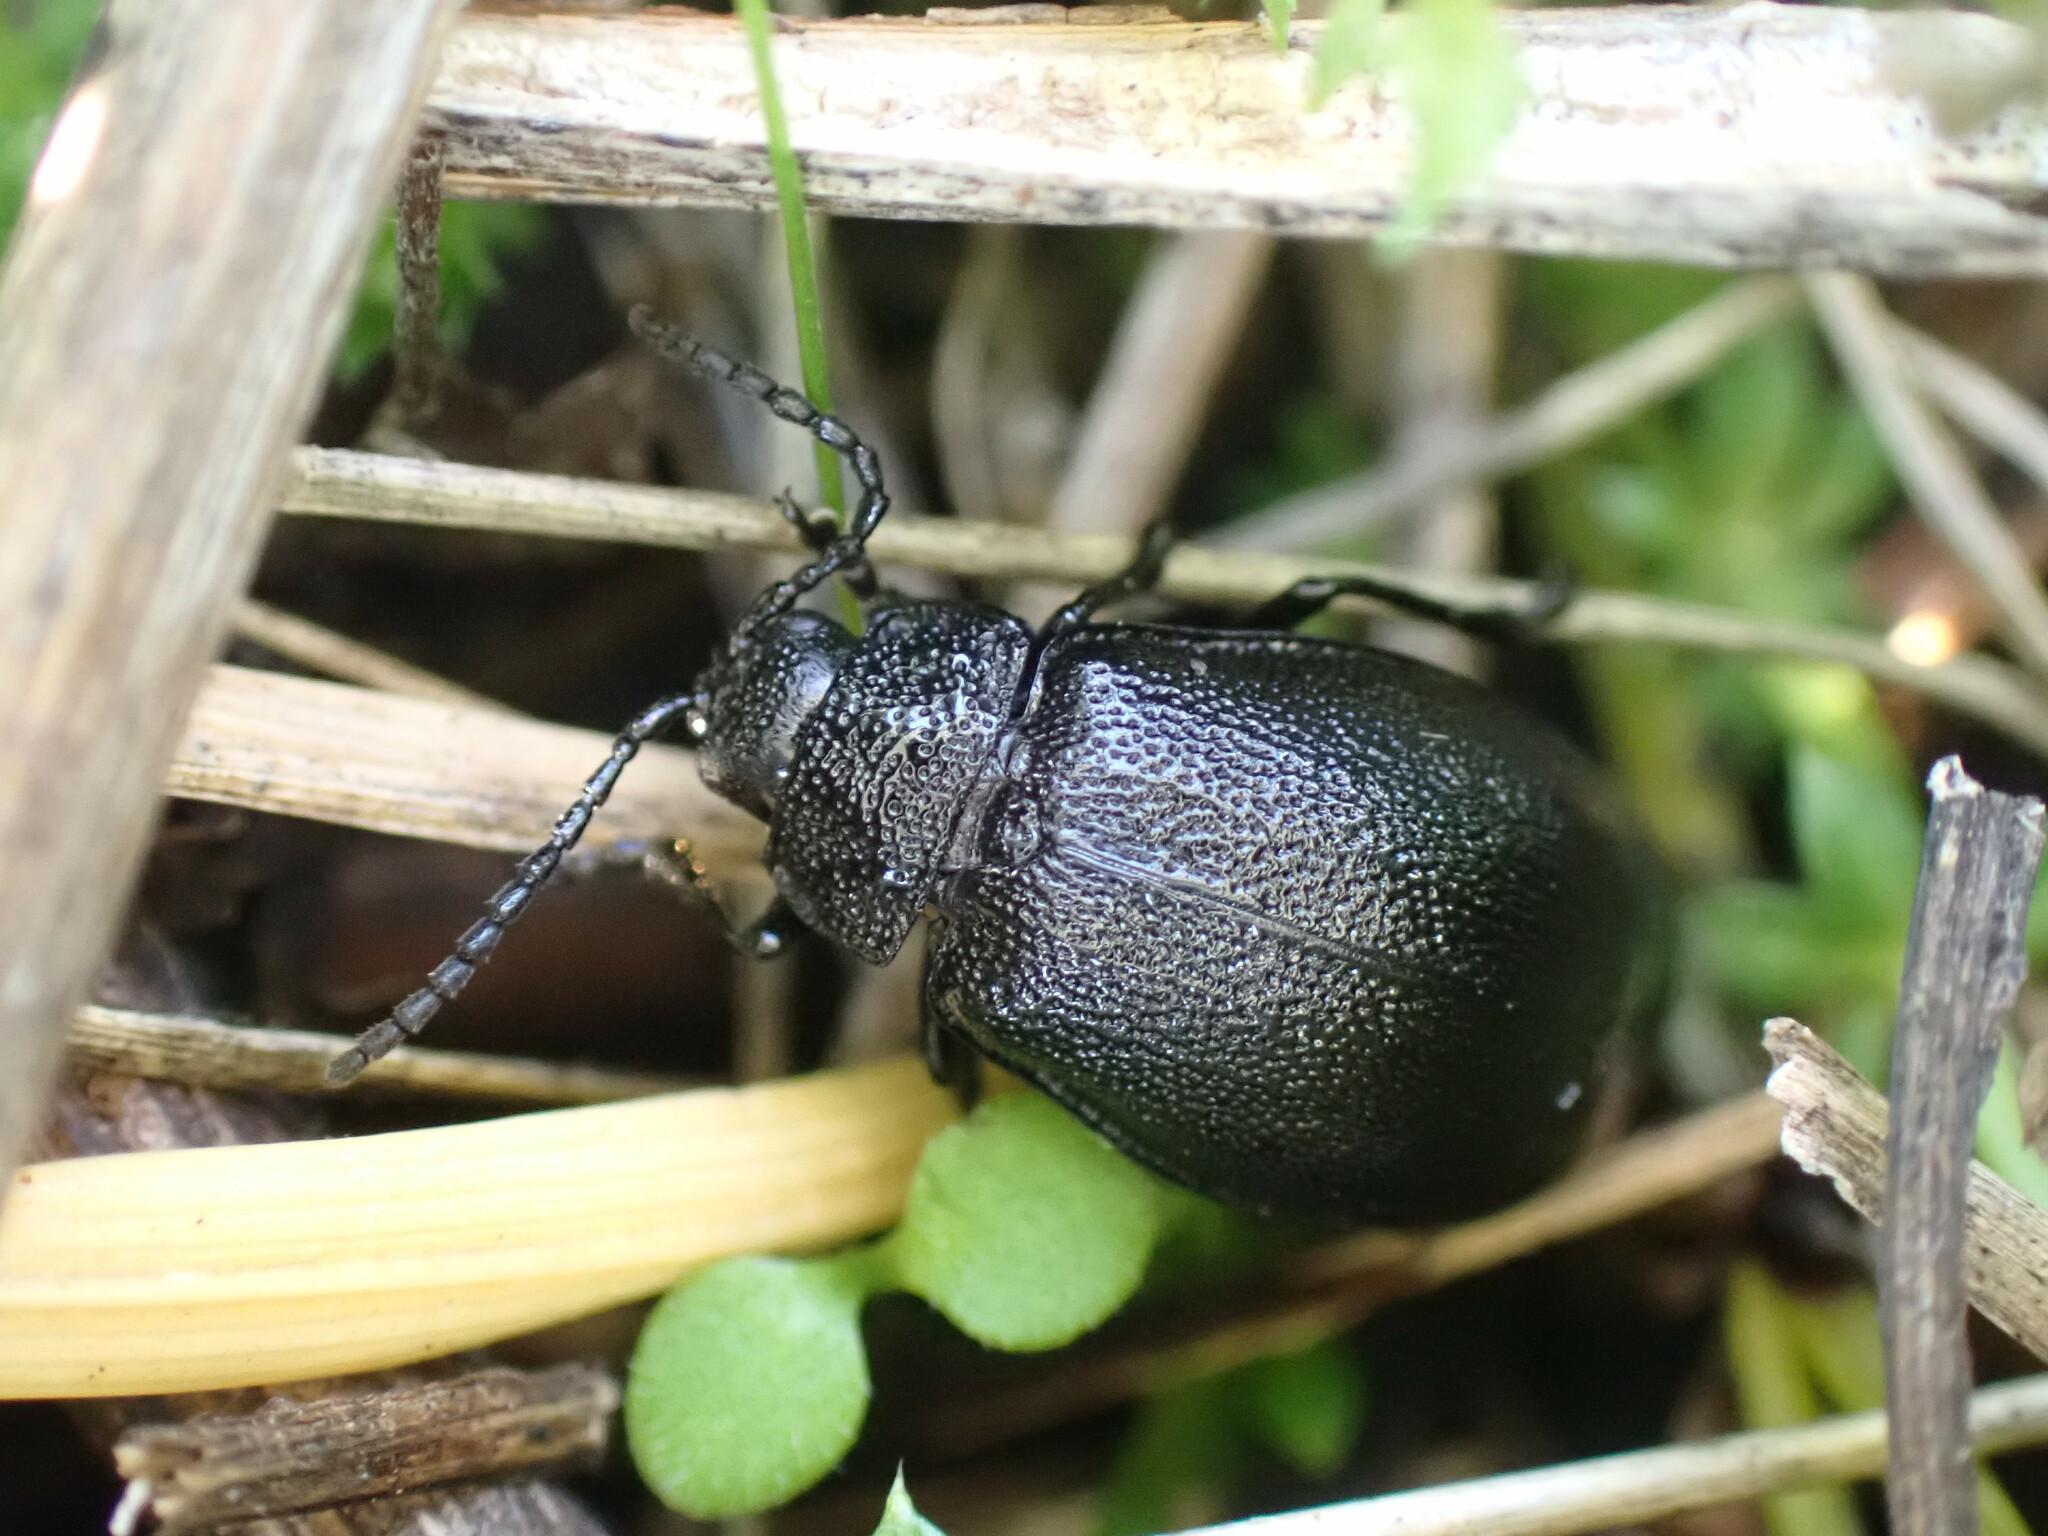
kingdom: Animalia
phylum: Arthropoda
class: Insecta
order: Coleoptera
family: Chrysomelidae
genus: Galeruca
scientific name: Galeruca tanaceti
